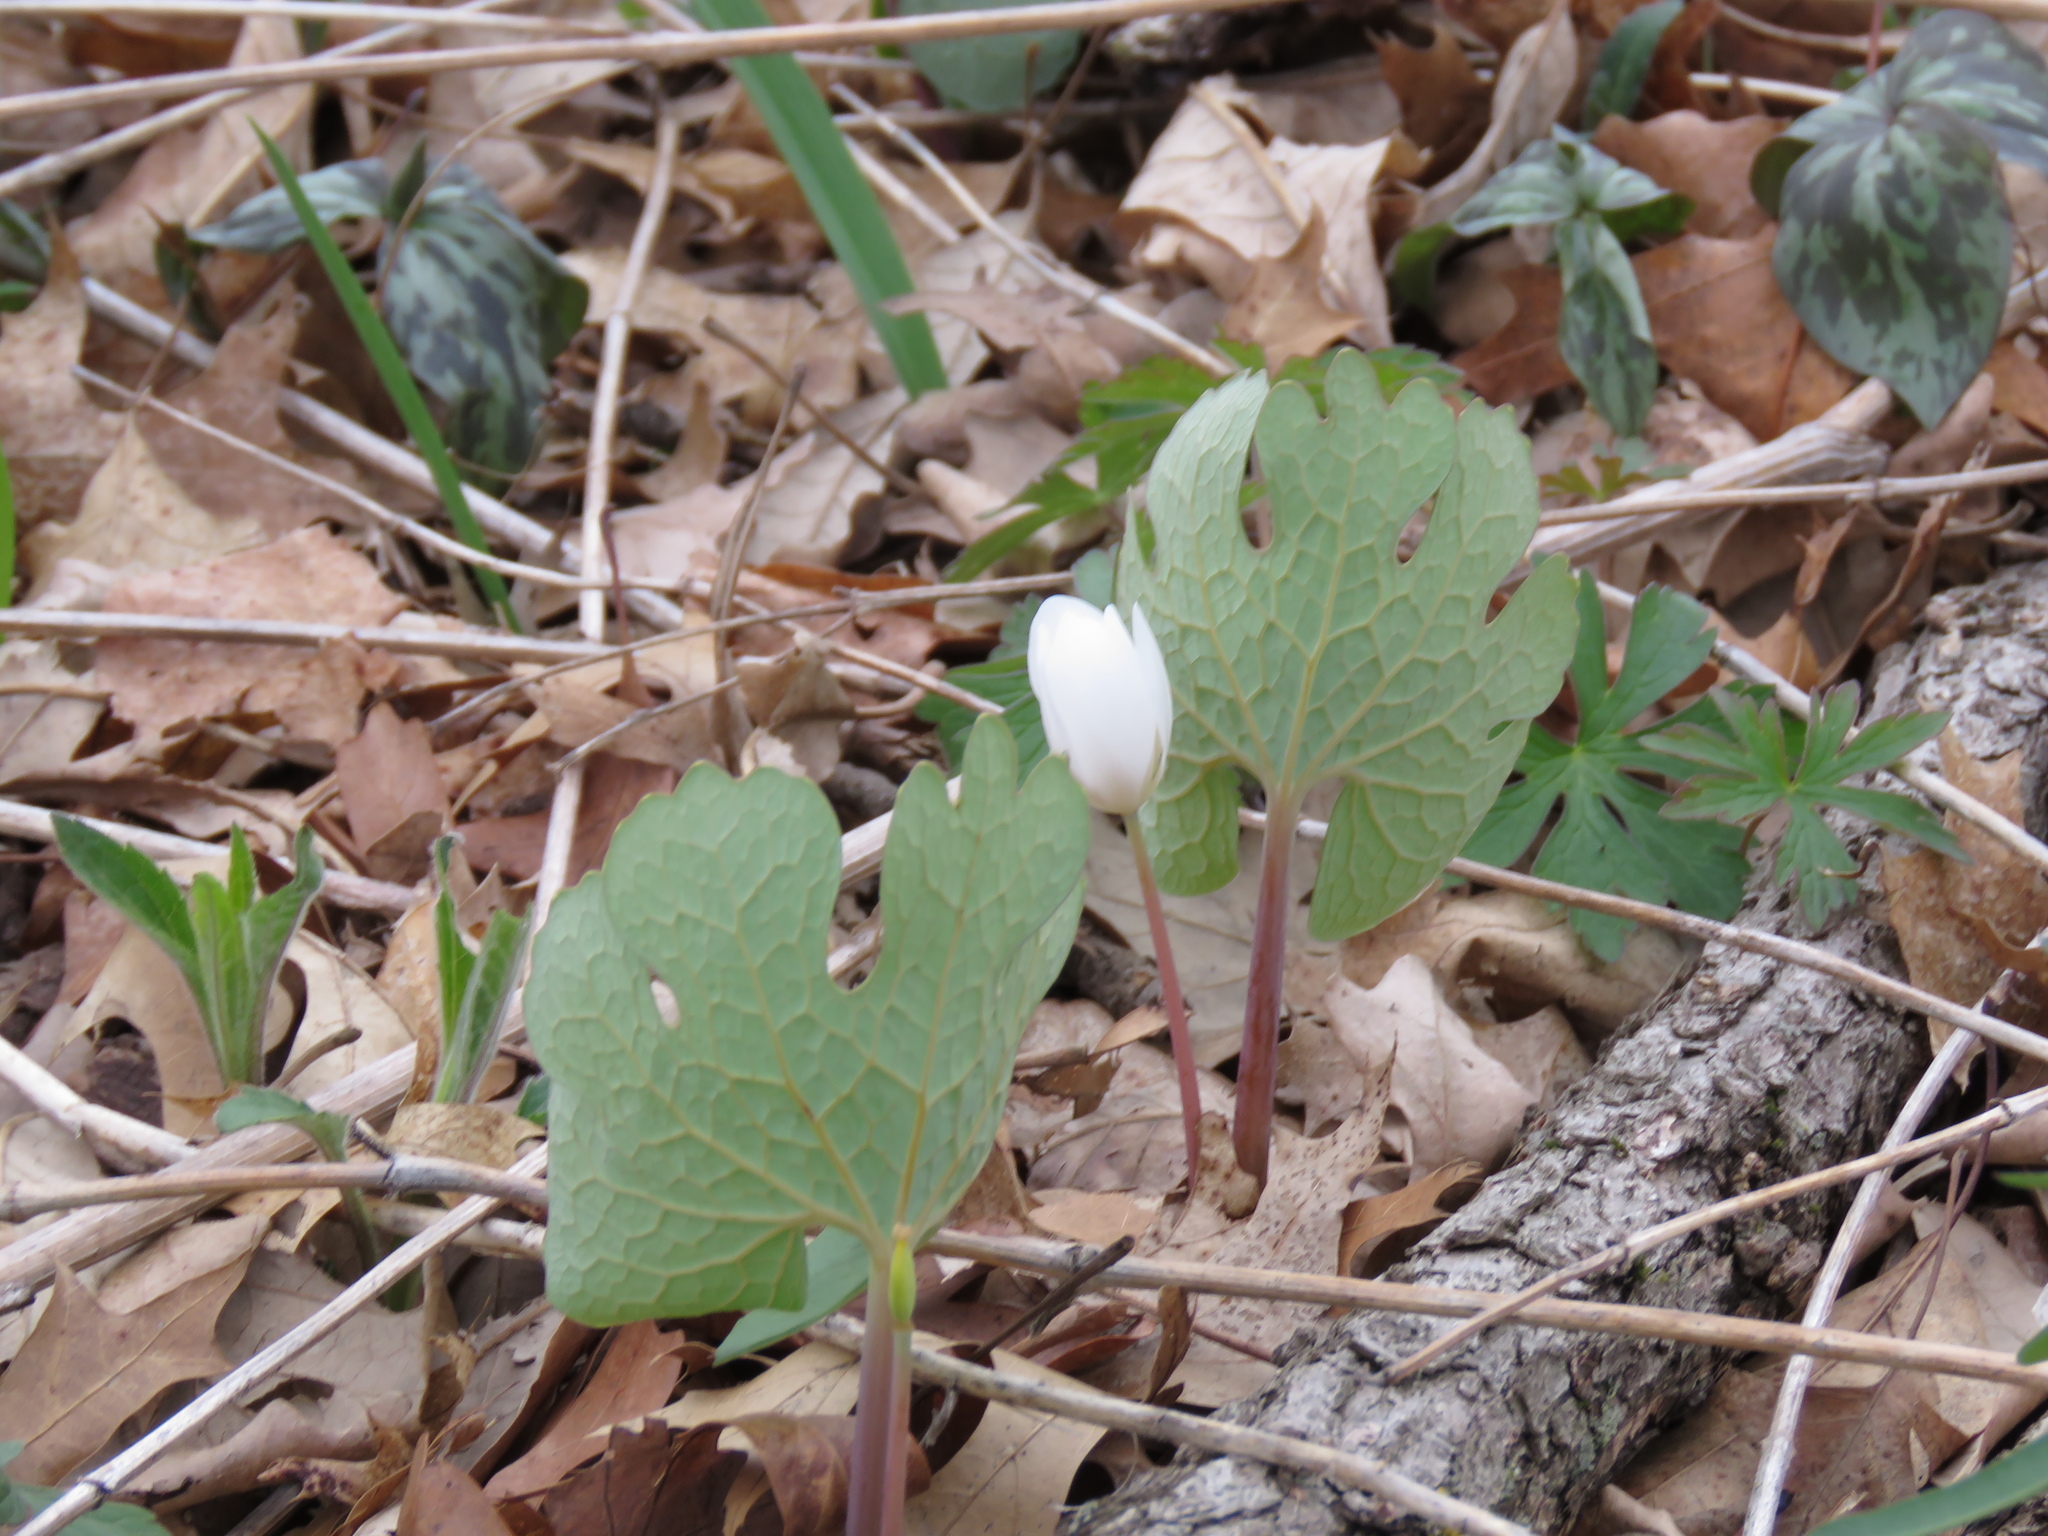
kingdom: Plantae
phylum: Tracheophyta
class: Magnoliopsida
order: Ranunculales
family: Papaveraceae
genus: Sanguinaria
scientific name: Sanguinaria canadensis
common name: Bloodroot
